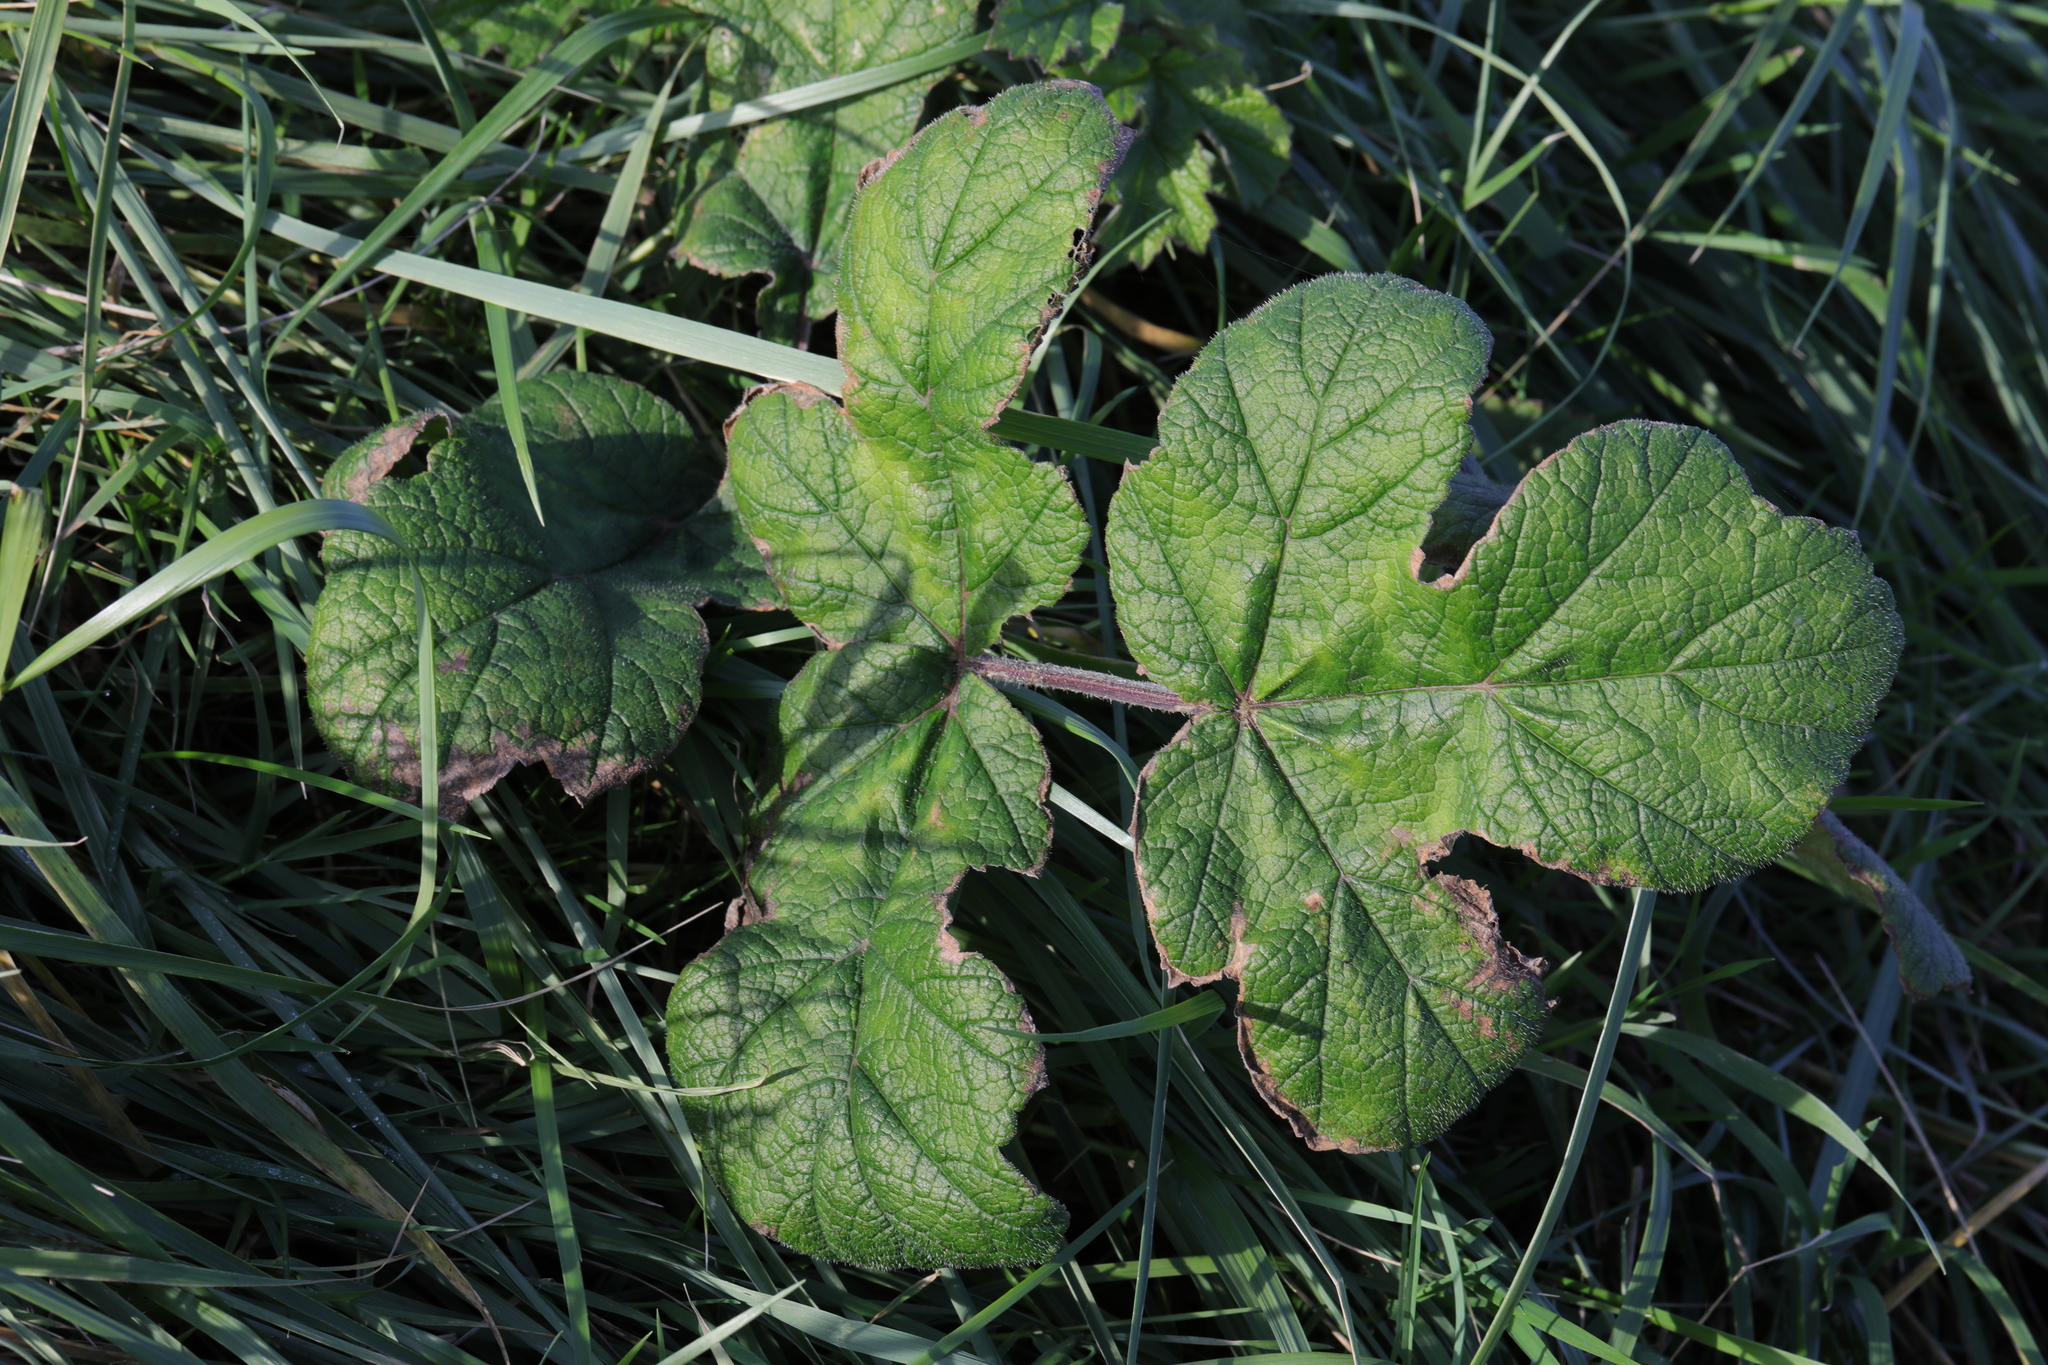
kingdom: Plantae
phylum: Tracheophyta
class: Magnoliopsida
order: Apiales
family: Apiaceae
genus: Heracleum
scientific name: Heracleum sphondylium
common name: Hogweed
